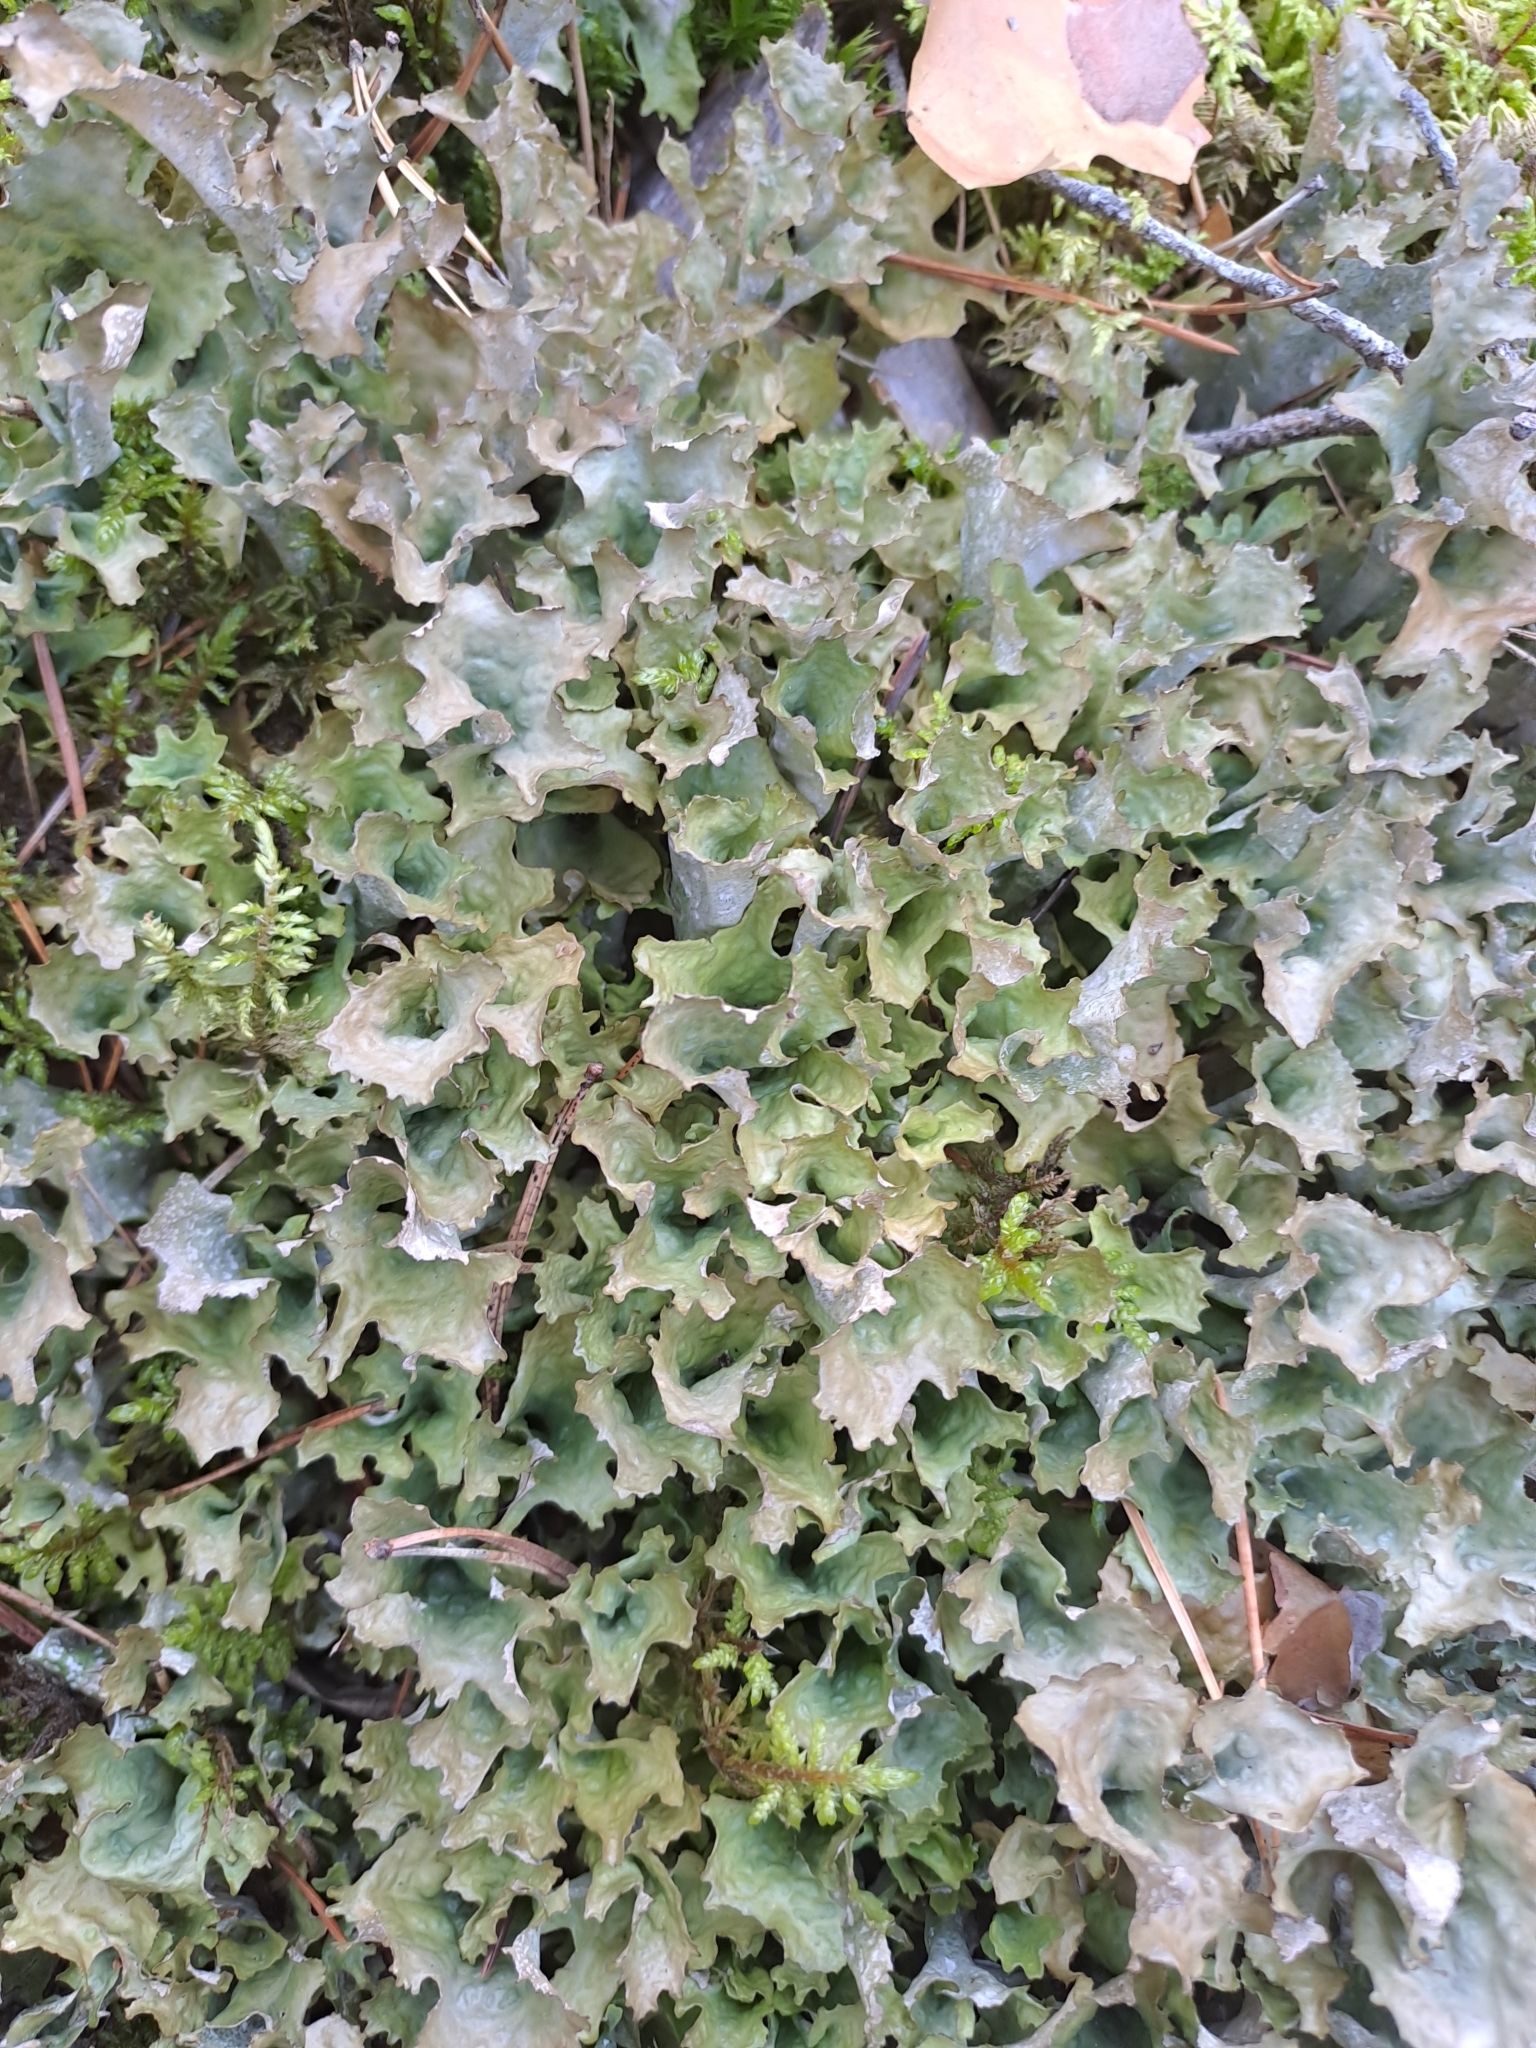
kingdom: Fungi
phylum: Ascomycota
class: Lecanoromycetes
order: Lecanorales
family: Parmeliaceae
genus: Cetraria
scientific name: Cetraria islandica
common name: Iceland lichen
